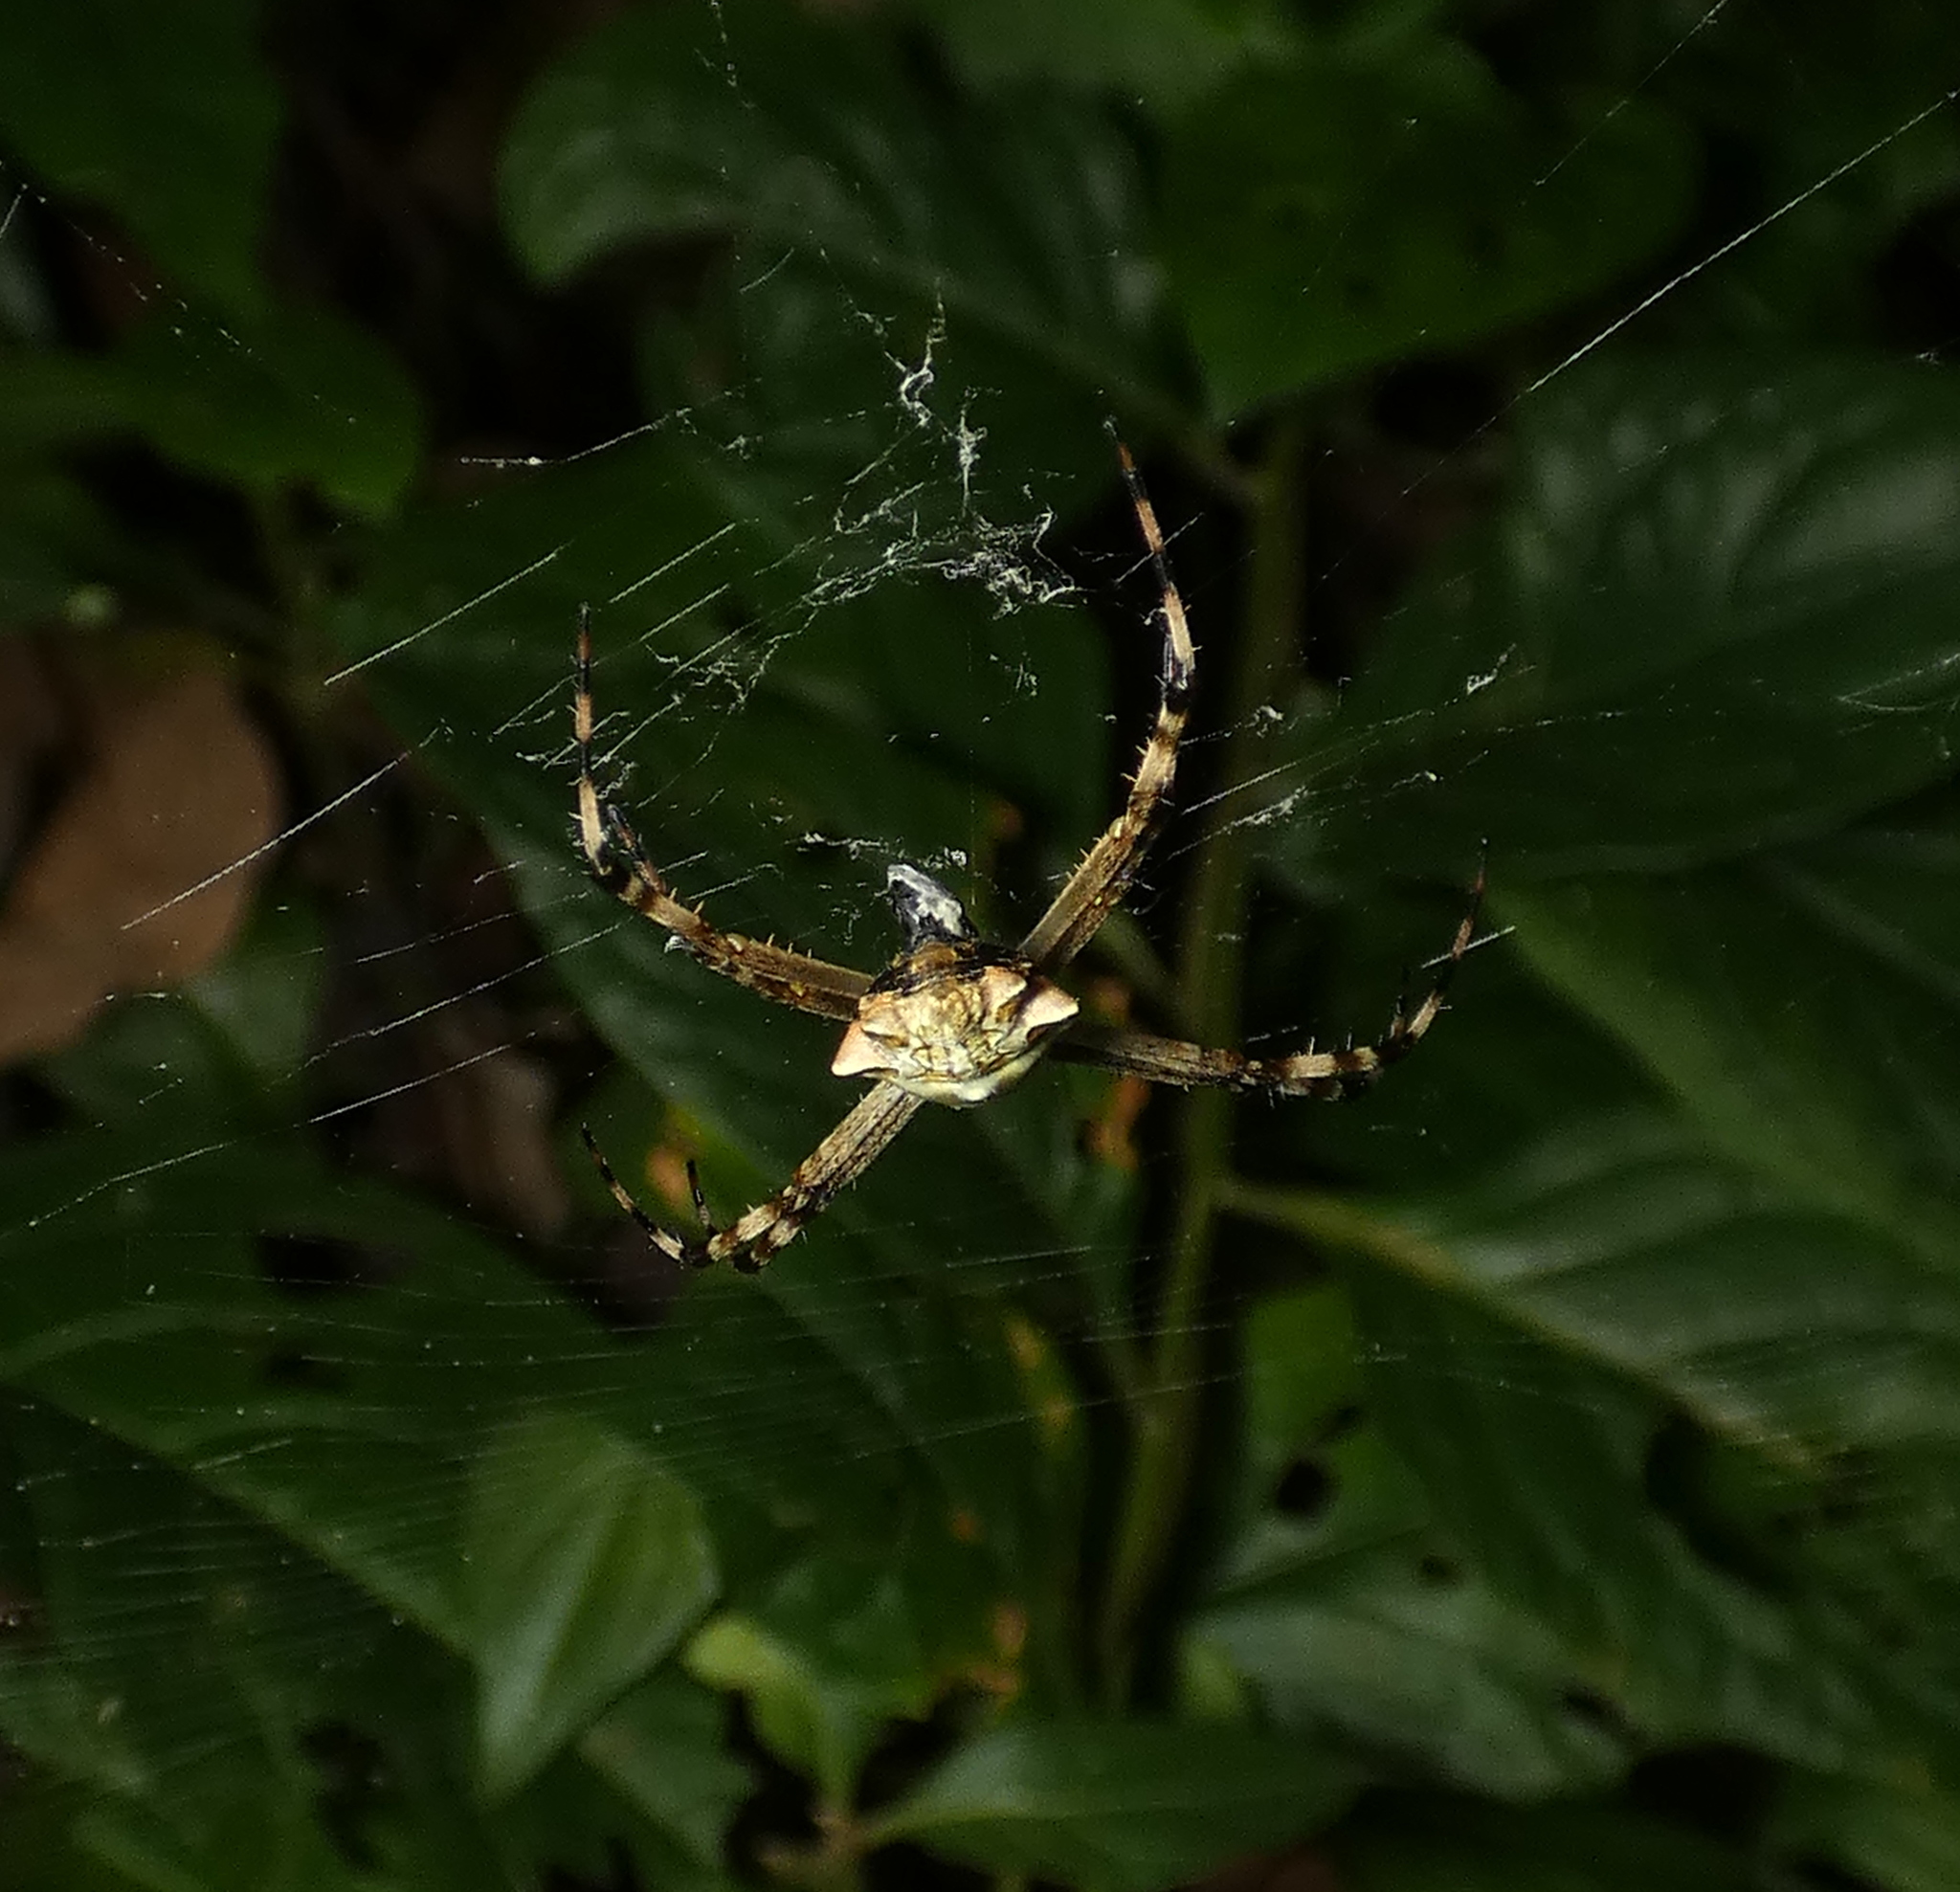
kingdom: Animalia
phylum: Arthropoda
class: Arachnida
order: Araneae
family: Araneidae
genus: Argiope
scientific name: Argiope argentata
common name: Orb weavers
